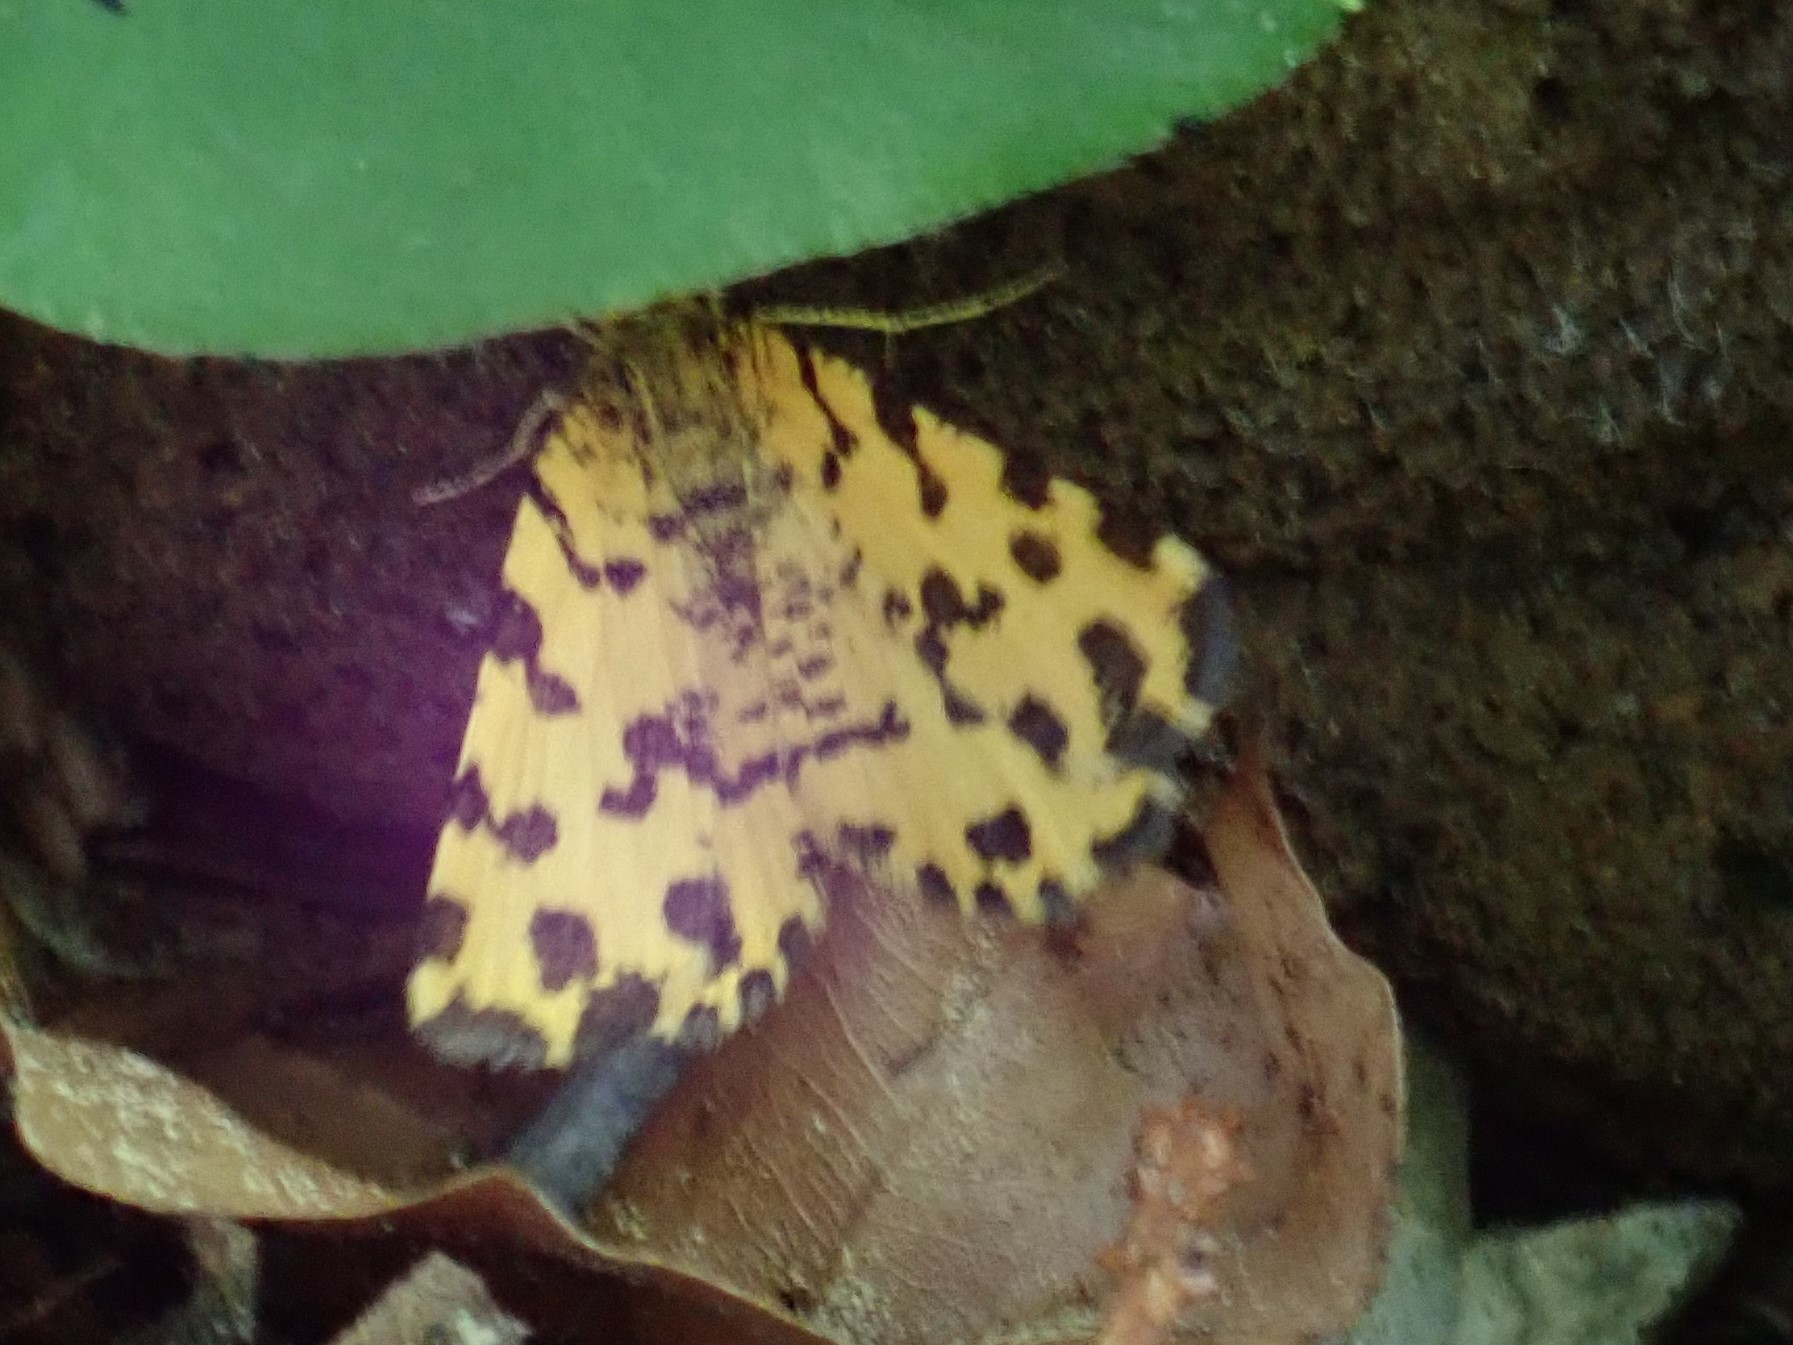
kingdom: Animalia
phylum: Arthropoda
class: Insecta
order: Lepidoptera
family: Geometridae
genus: Pseudopanthera
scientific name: Pseudopanthera macularia
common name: Speckled yellow
